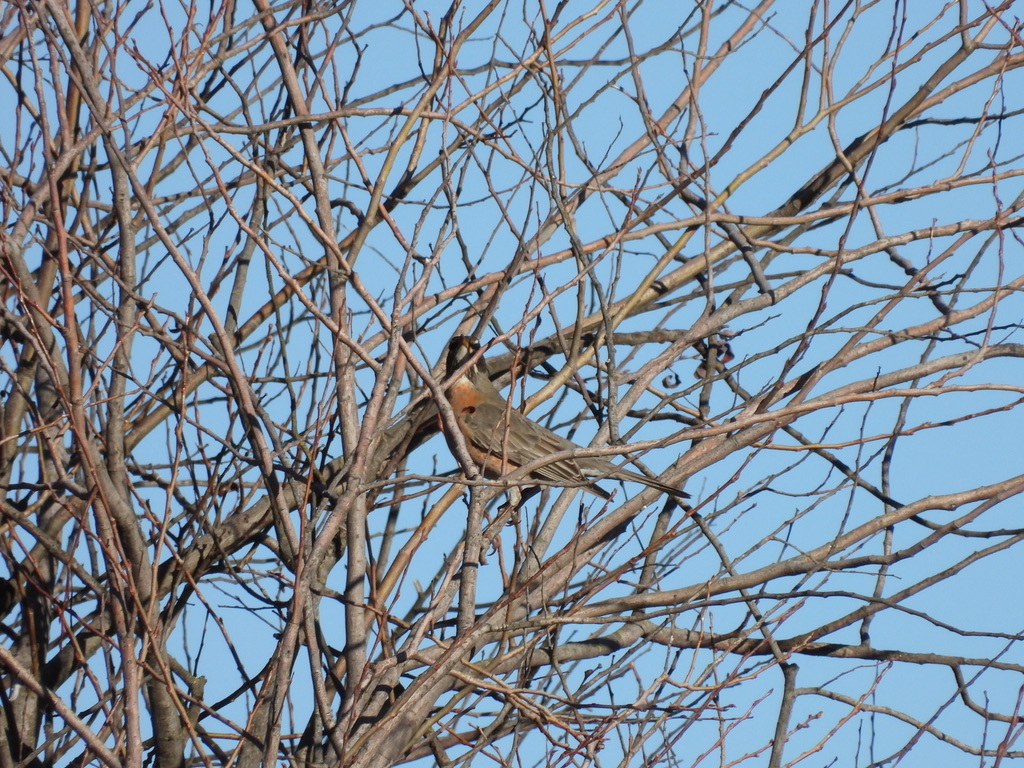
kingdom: Animalia
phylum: Chordata
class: Aves
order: Passeriformes
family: Turdidae
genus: Turdus
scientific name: Turdus migratorius
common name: American robin
